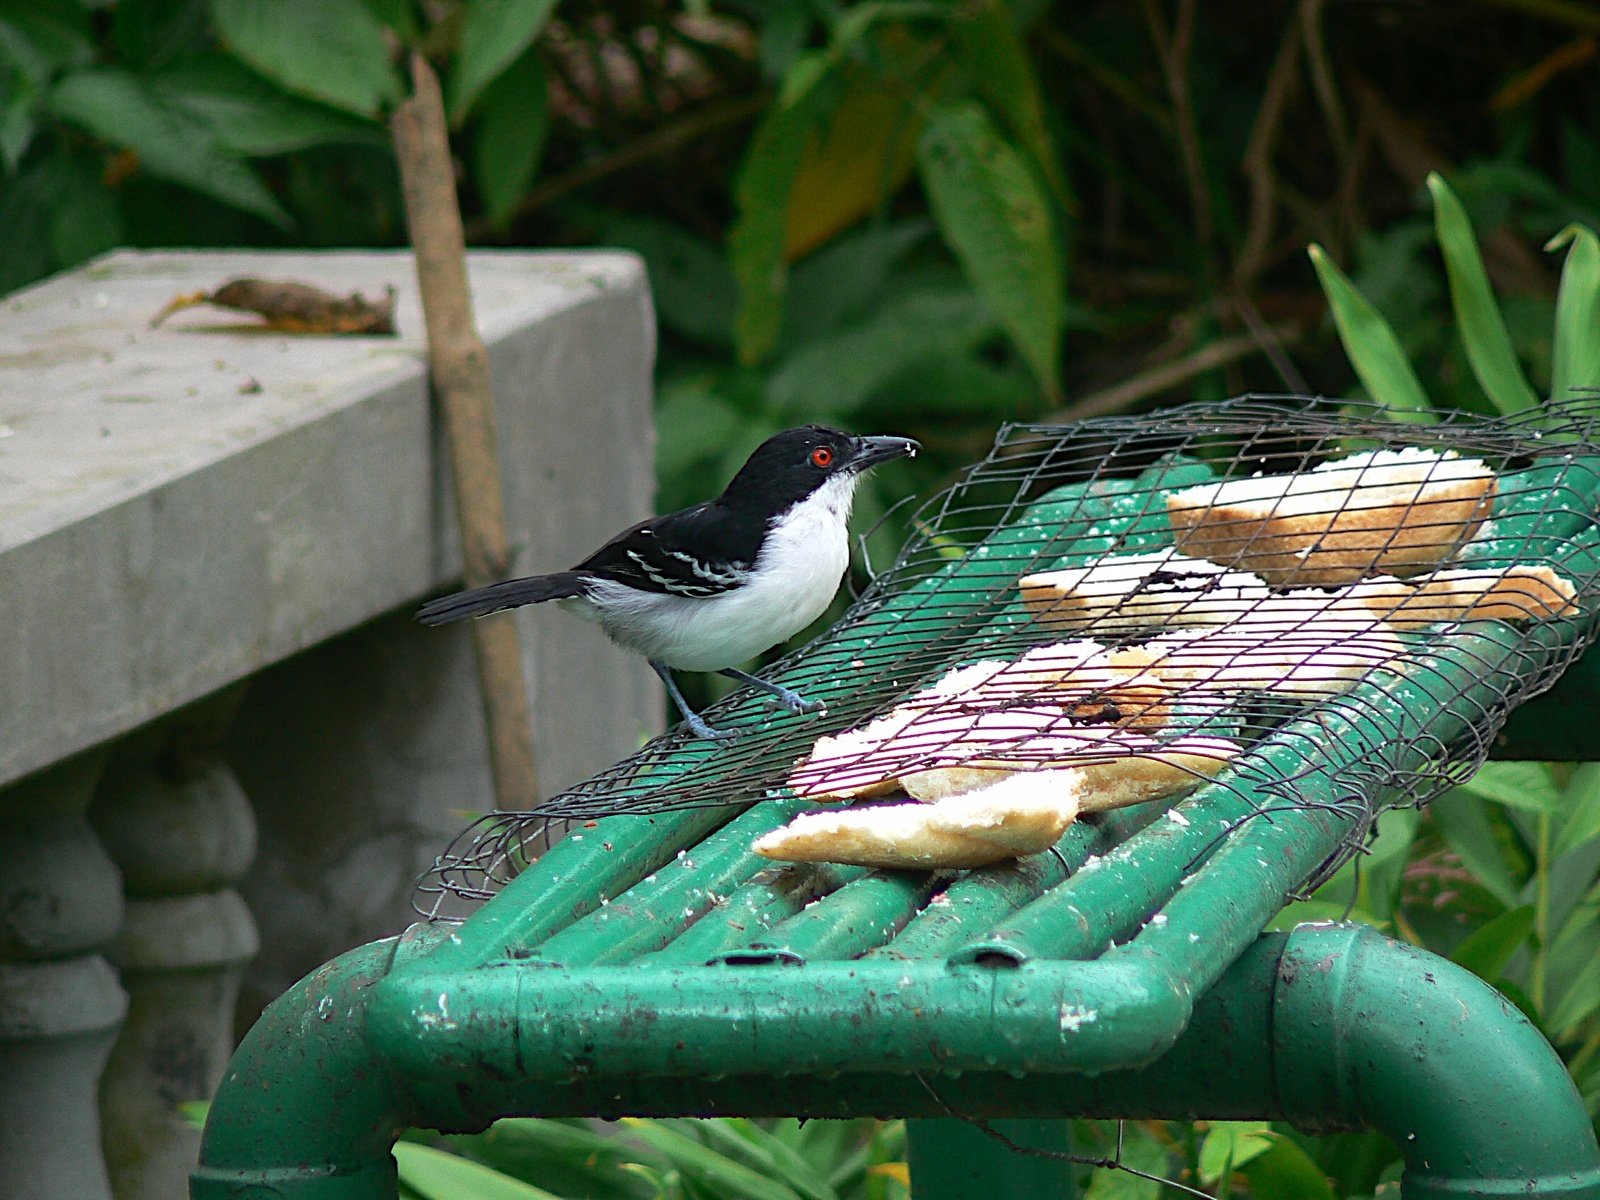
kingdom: Animalia
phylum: Chordata
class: Aves
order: Passeriformes
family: Thamnophilidae
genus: Taraba
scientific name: Taraba major
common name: Great antshrike
